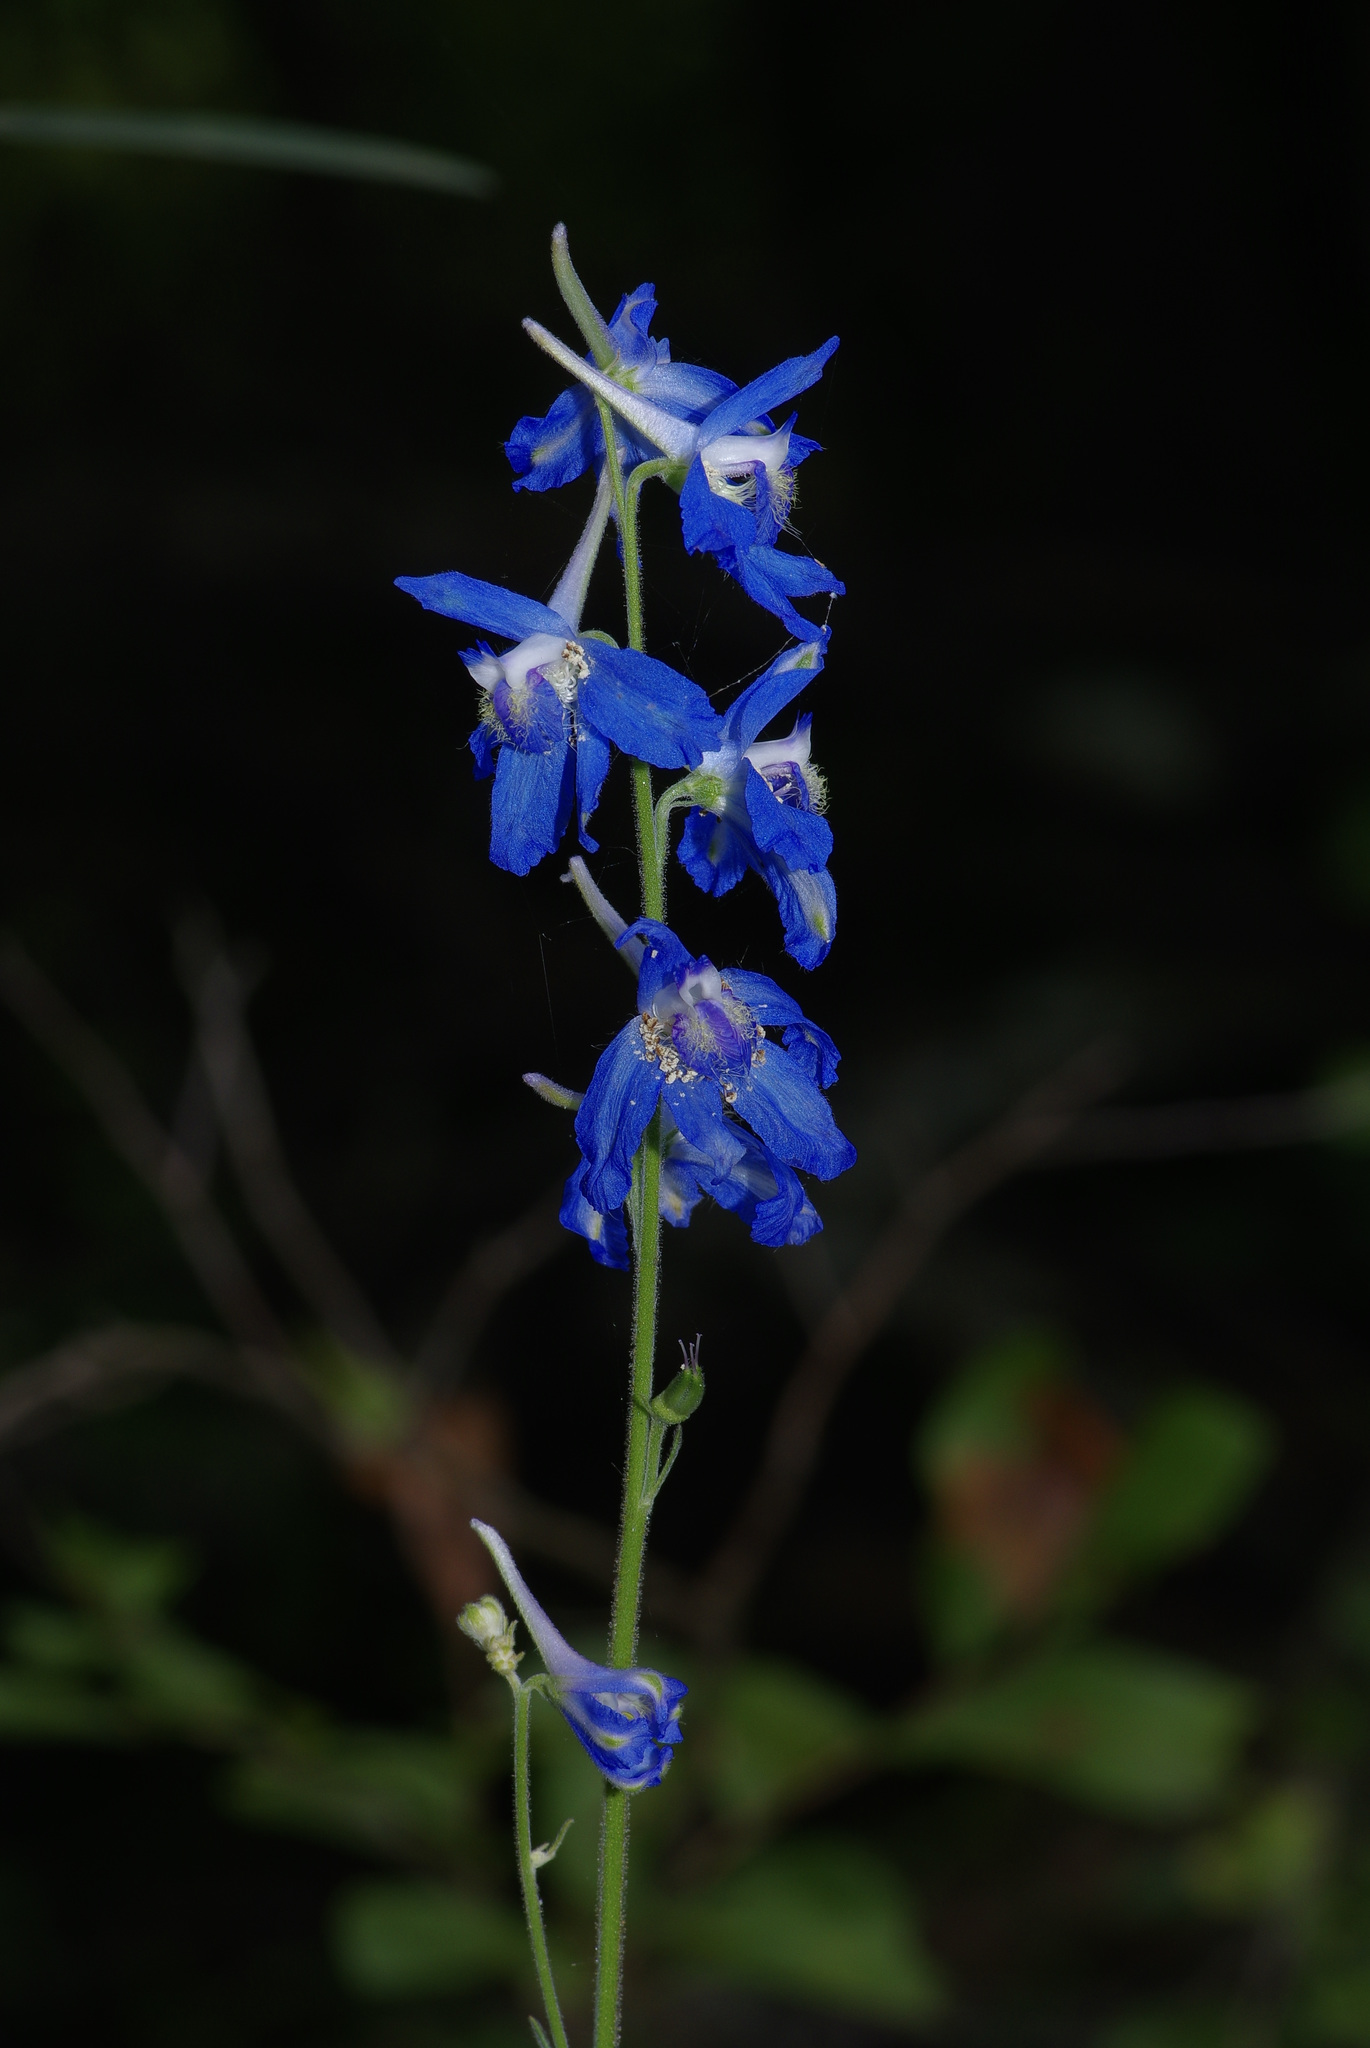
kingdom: Plantae
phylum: Tracheophyta
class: Magnoliopsida
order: Ranunculales
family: Ranunculaceae
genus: Delphinium
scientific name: Delphinium carolinianum
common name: Carolina larkspur
